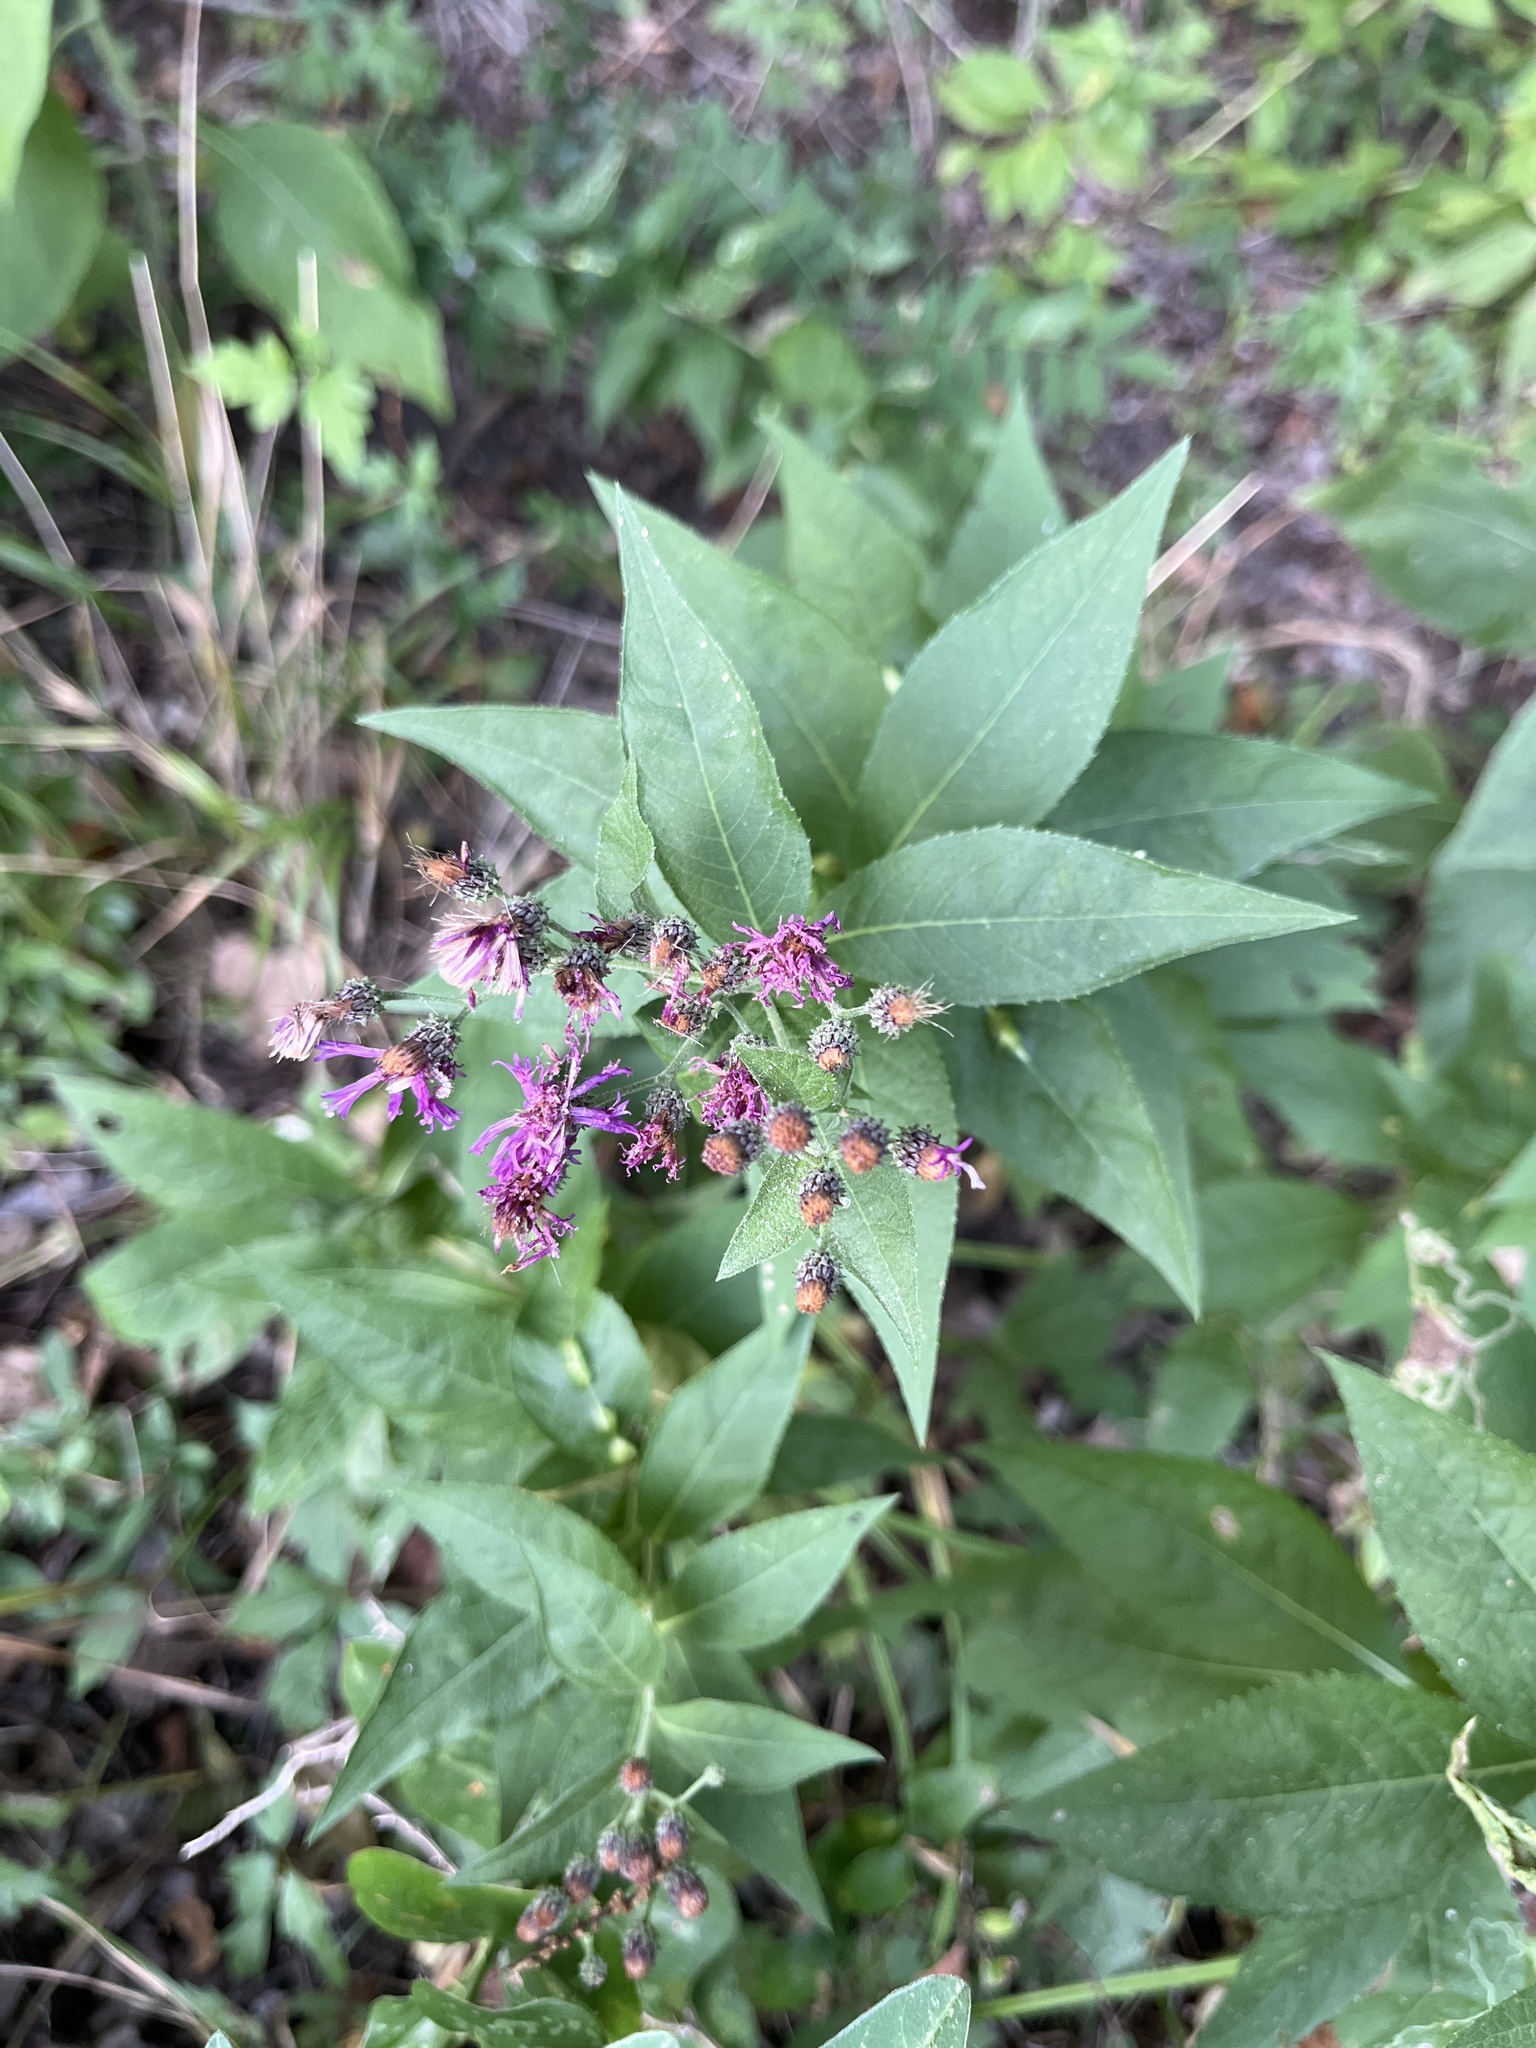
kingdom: Plantae
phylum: Tracheophyta
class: Magnoliopsida
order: Asterales
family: Asteraceae
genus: Vernonia
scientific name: Vernonia baldwinii
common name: Western ironweed
